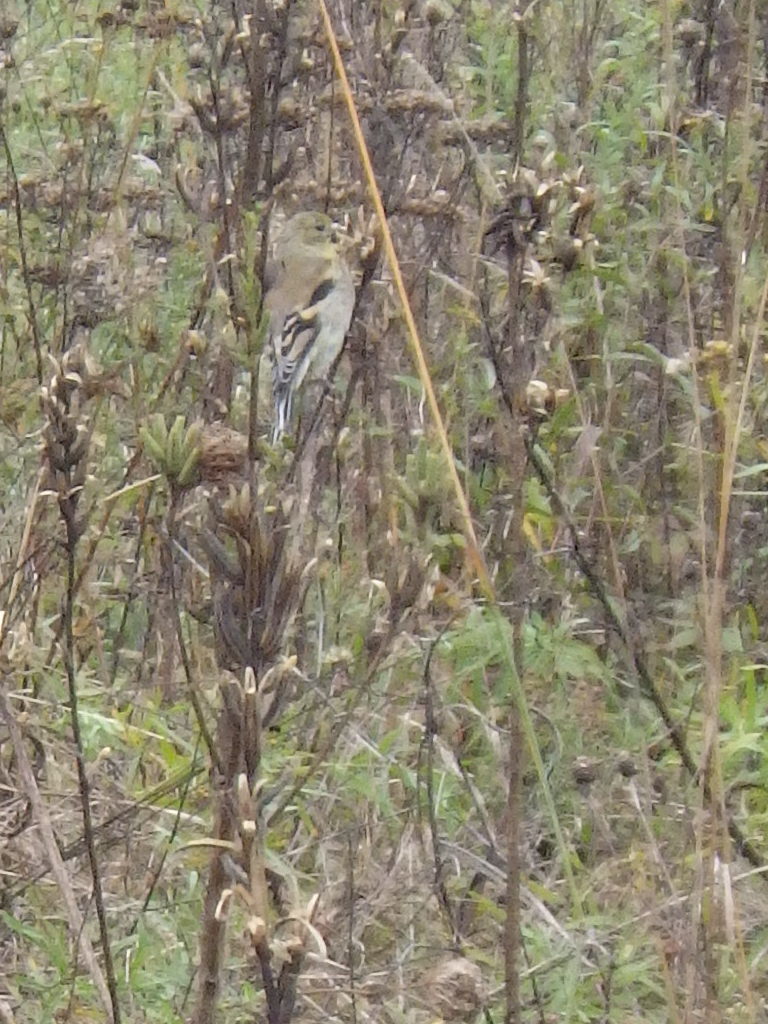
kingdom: Animalia
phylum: Chordata
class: Aves
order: Passeriformes
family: Fringillidae
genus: Spinus
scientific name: Spinus tristis
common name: American goldfinch
